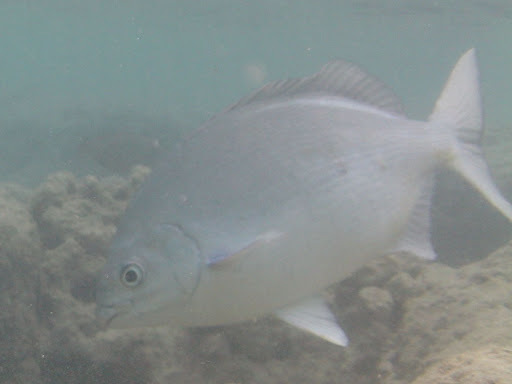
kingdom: Animalia
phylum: Chordata
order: Perciformes
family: Kyphosidae
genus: Kyphosus
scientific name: Kyphosus elegans
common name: Cortez chub
